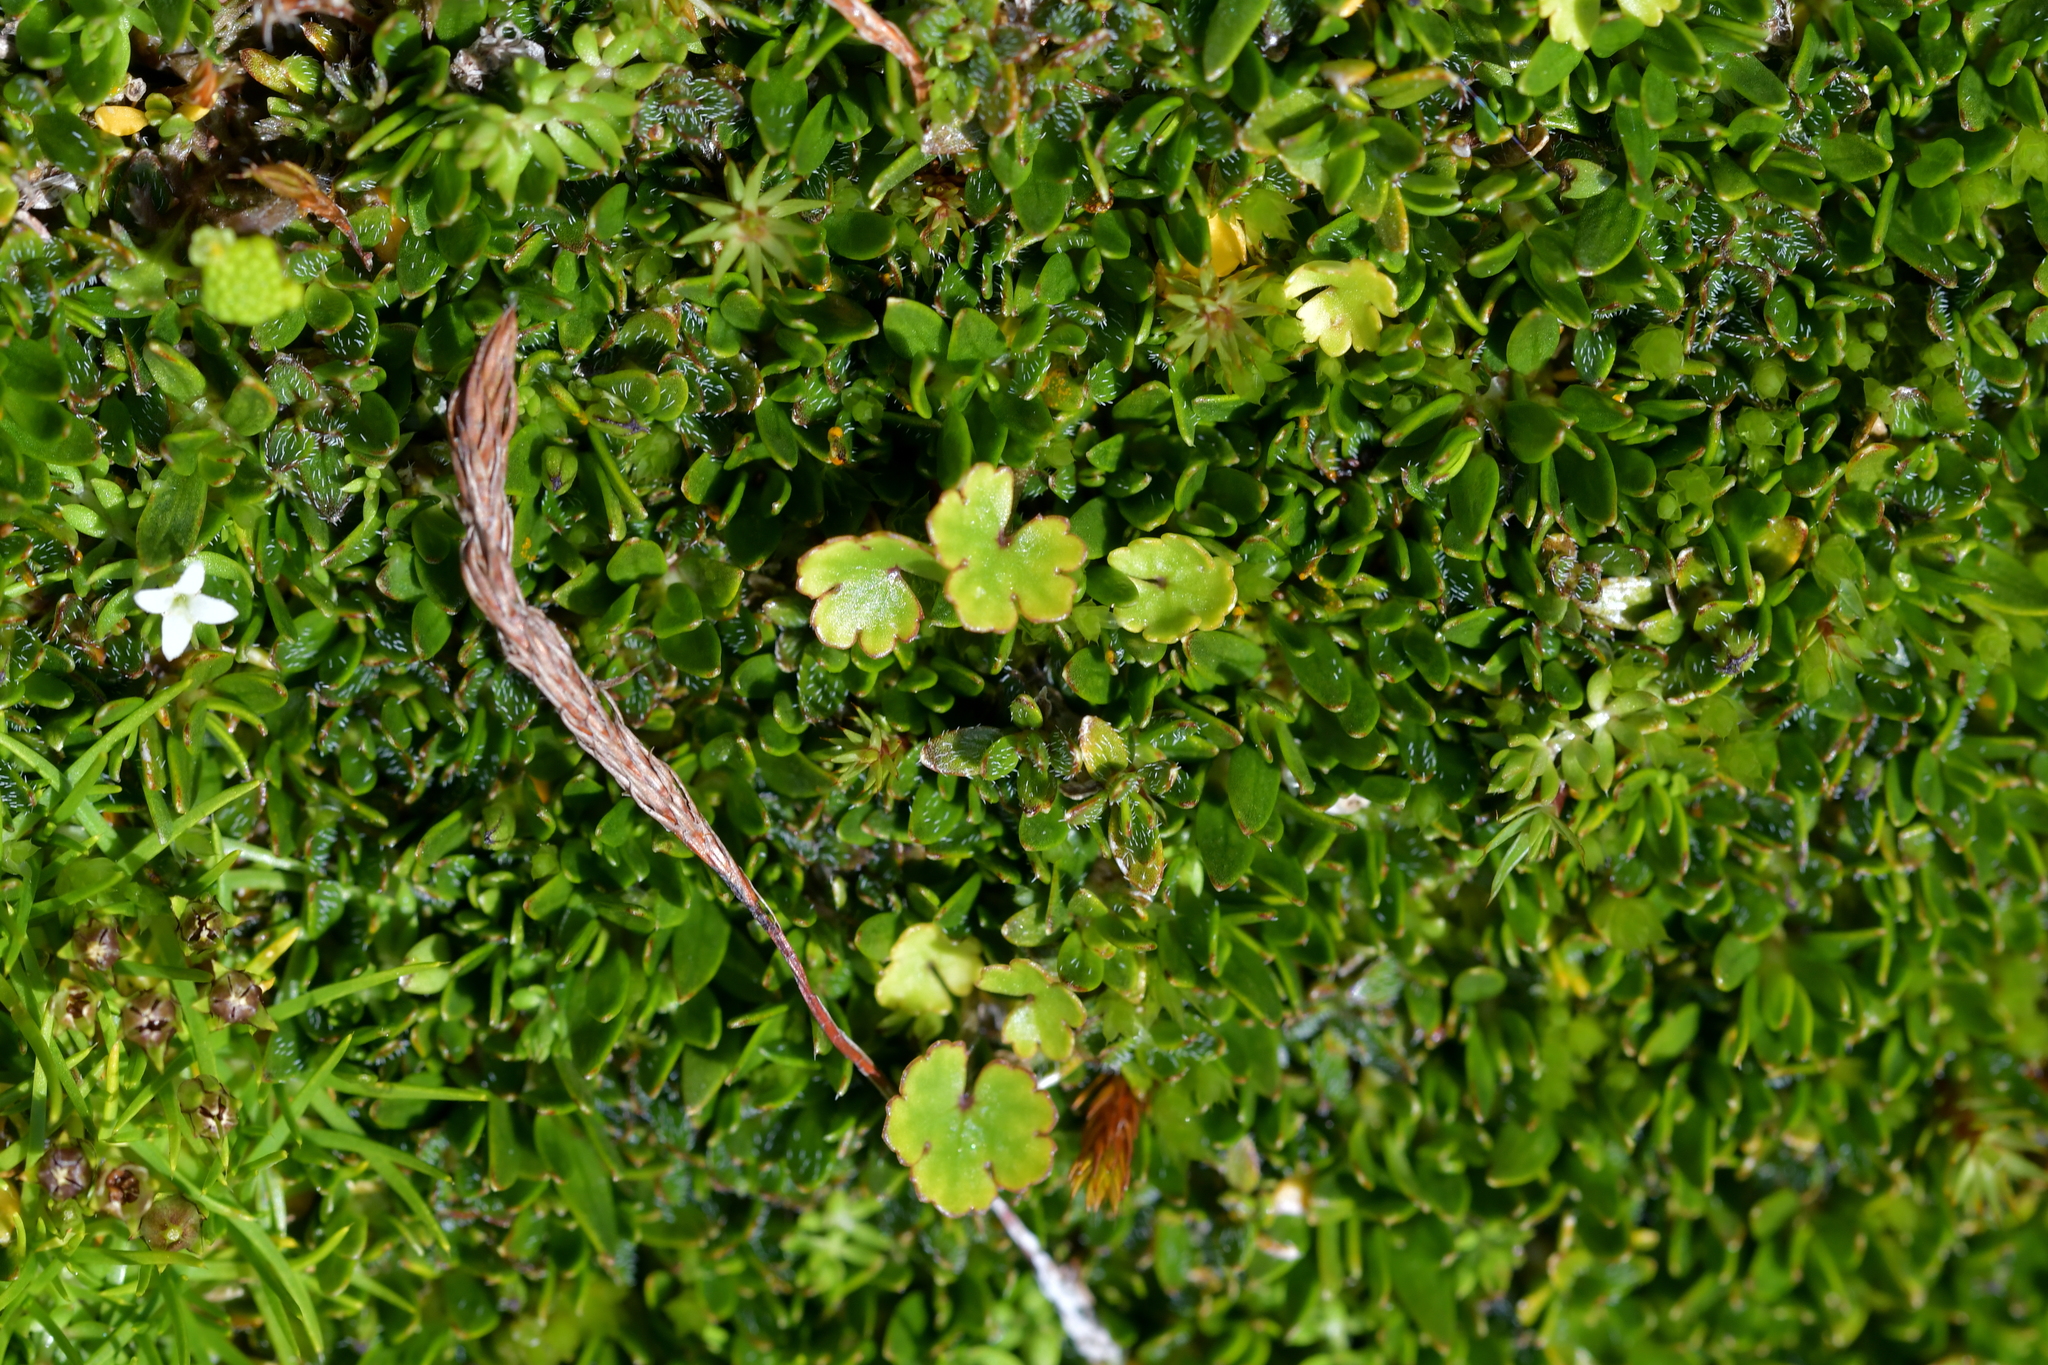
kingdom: Plantae
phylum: Tracheophyta
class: Magnoliopsida
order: Apiales
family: Araliaceae
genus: Hydrocotyle
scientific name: Hydrocotyle novae-zeelandiae
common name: New zealand pennywort
